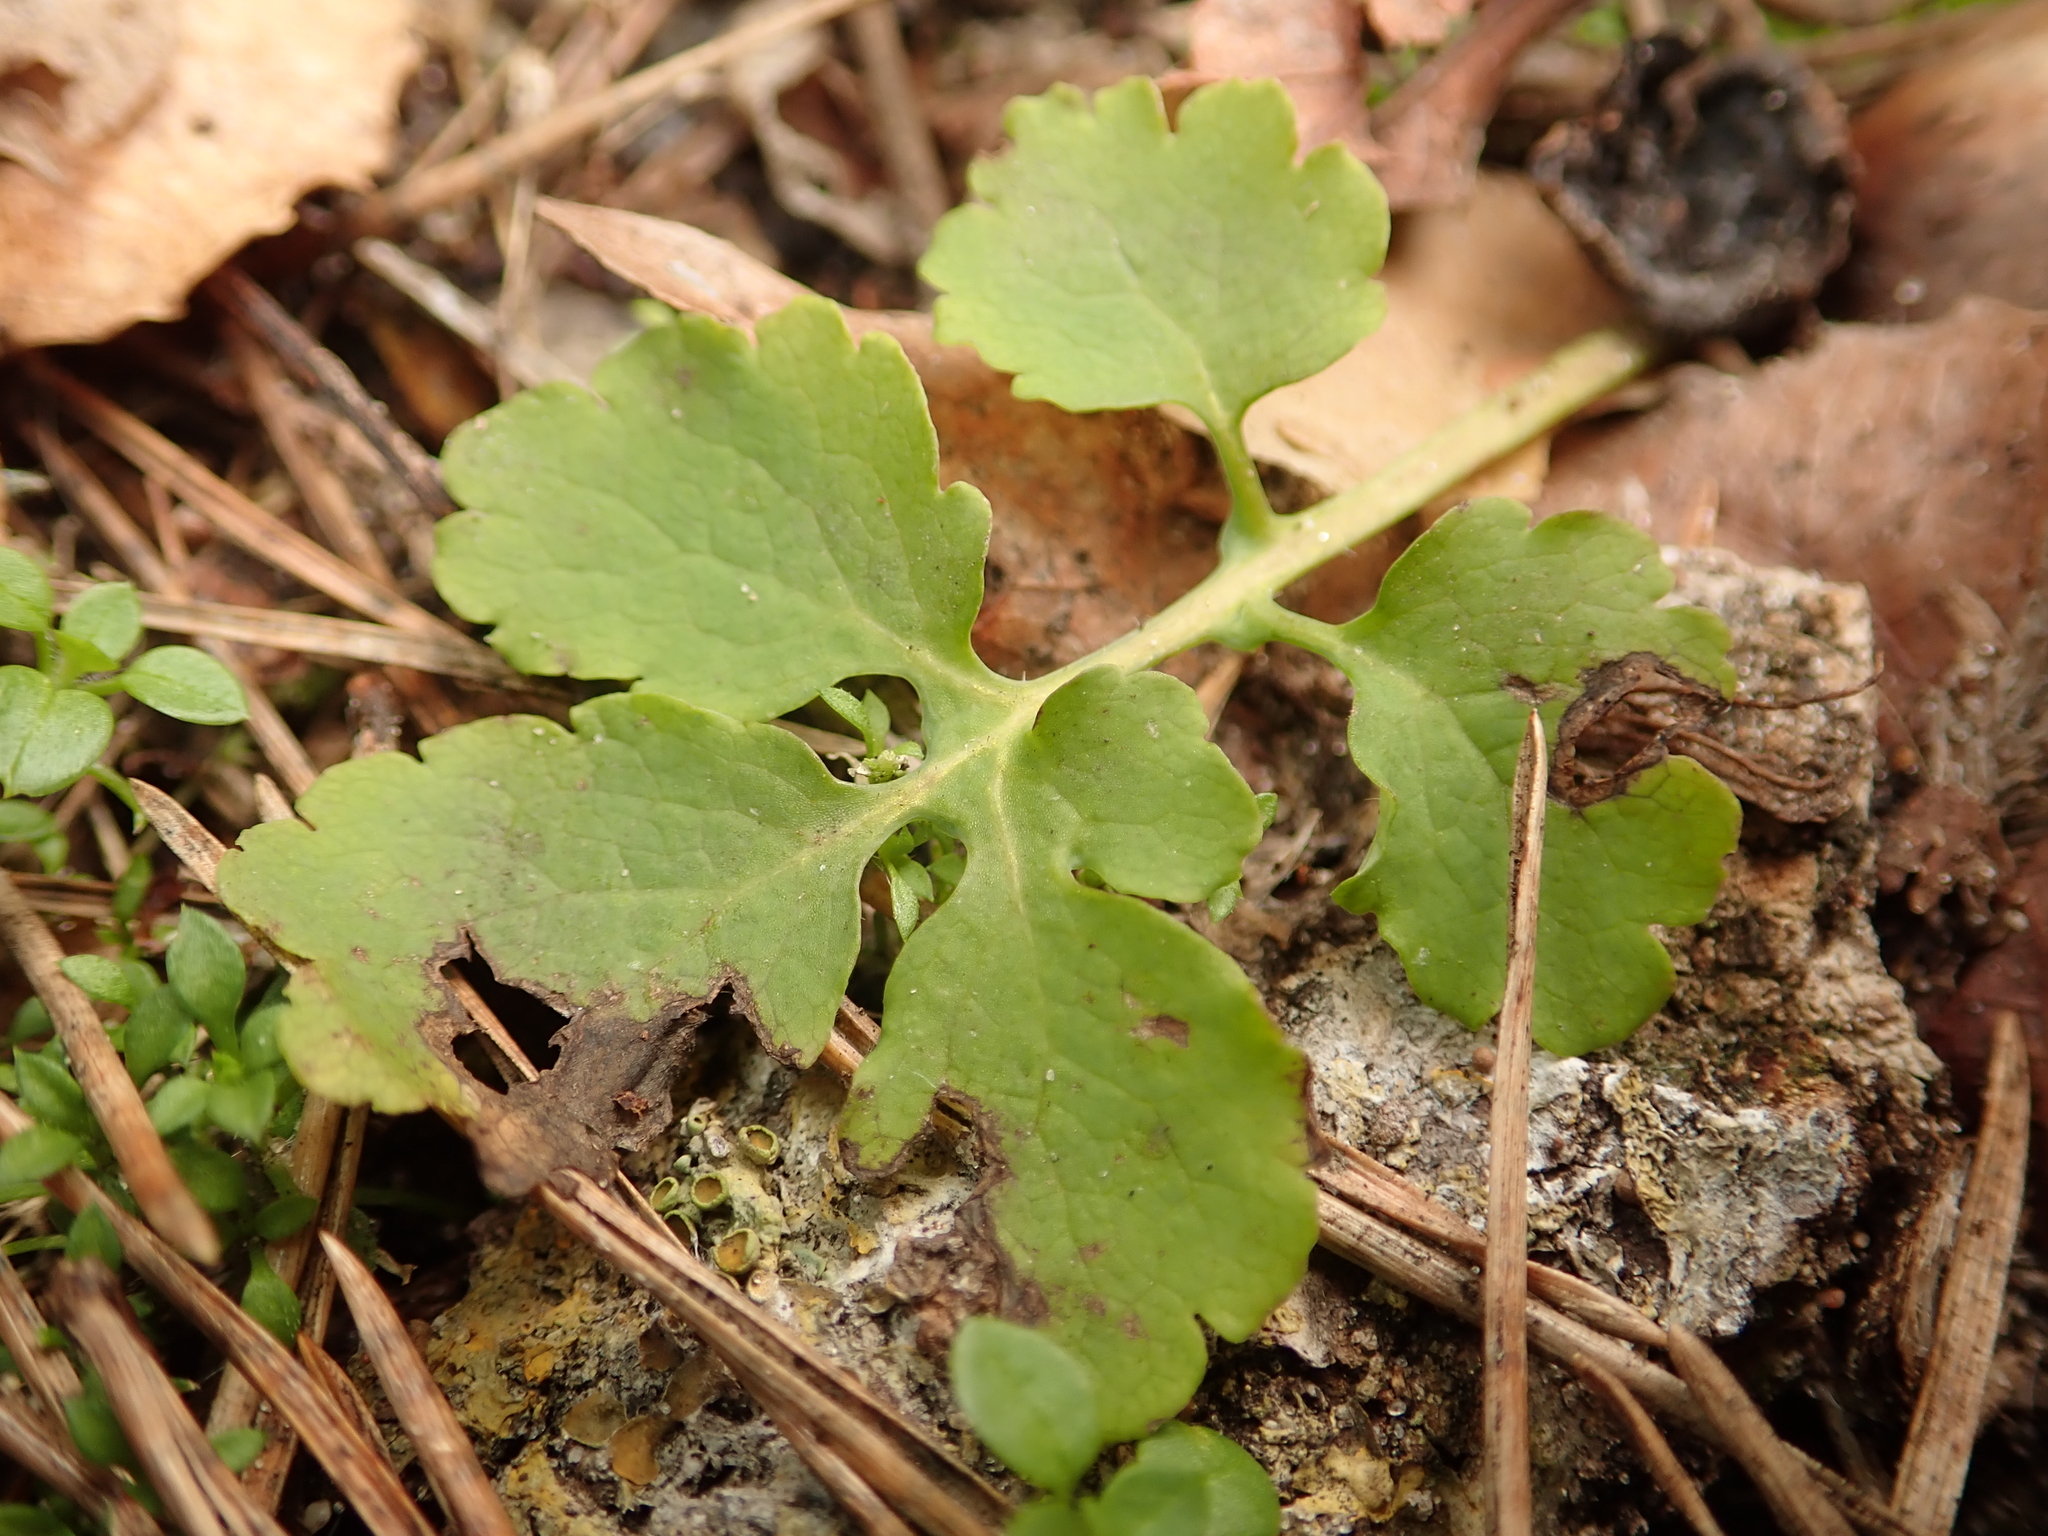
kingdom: Plantae
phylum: Tracheophyta
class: Magnoliopsida
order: Ranunculales
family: Papaveraceae
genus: Chelidonium
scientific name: Chelidonium majus
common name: Greater celandine
